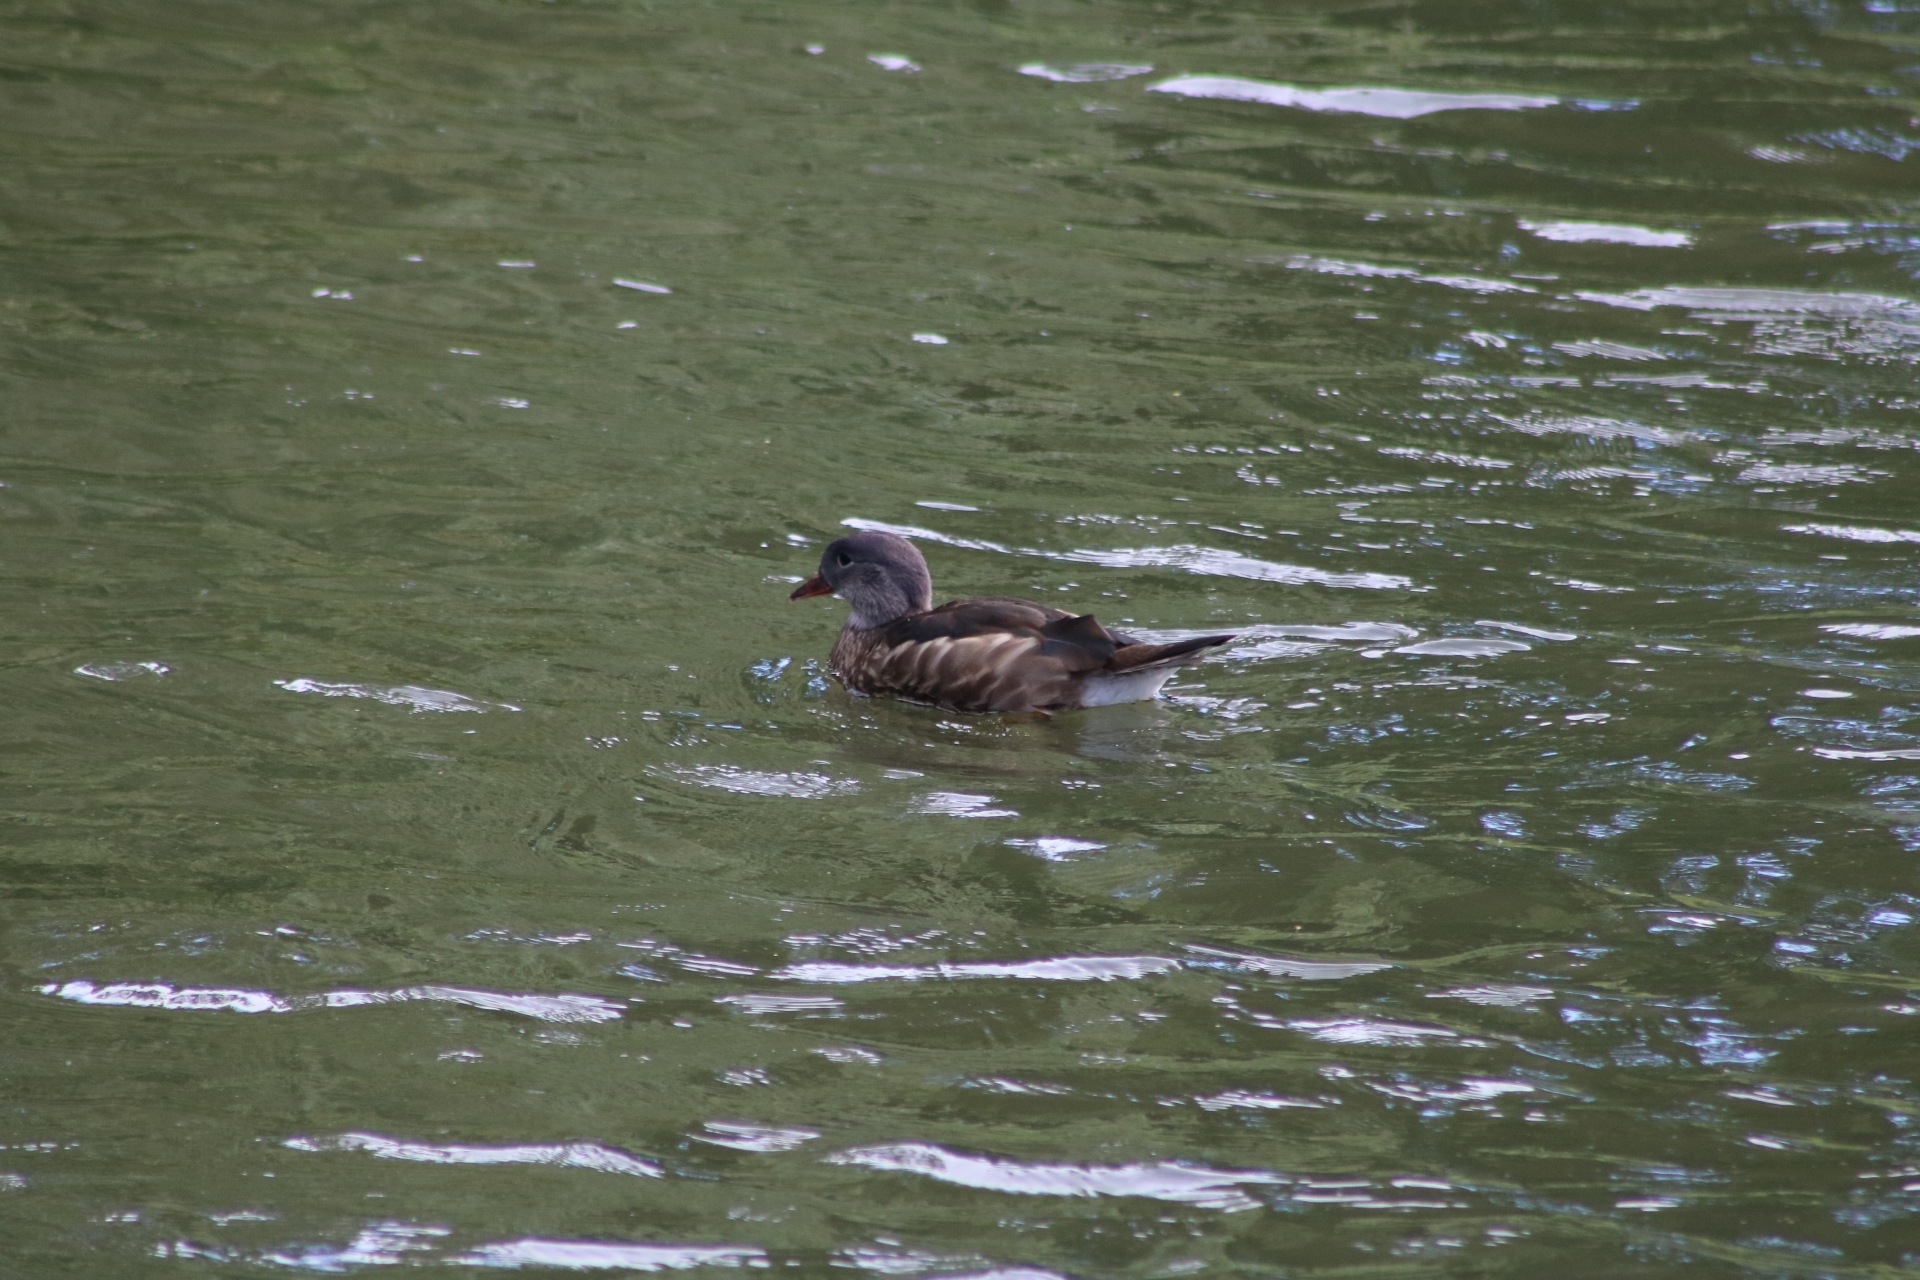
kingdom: Animalia
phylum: Chordata
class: Aves
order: Anseriformes
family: Anatidae
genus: Aix
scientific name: Aix galericulata
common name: Mandarin duck
